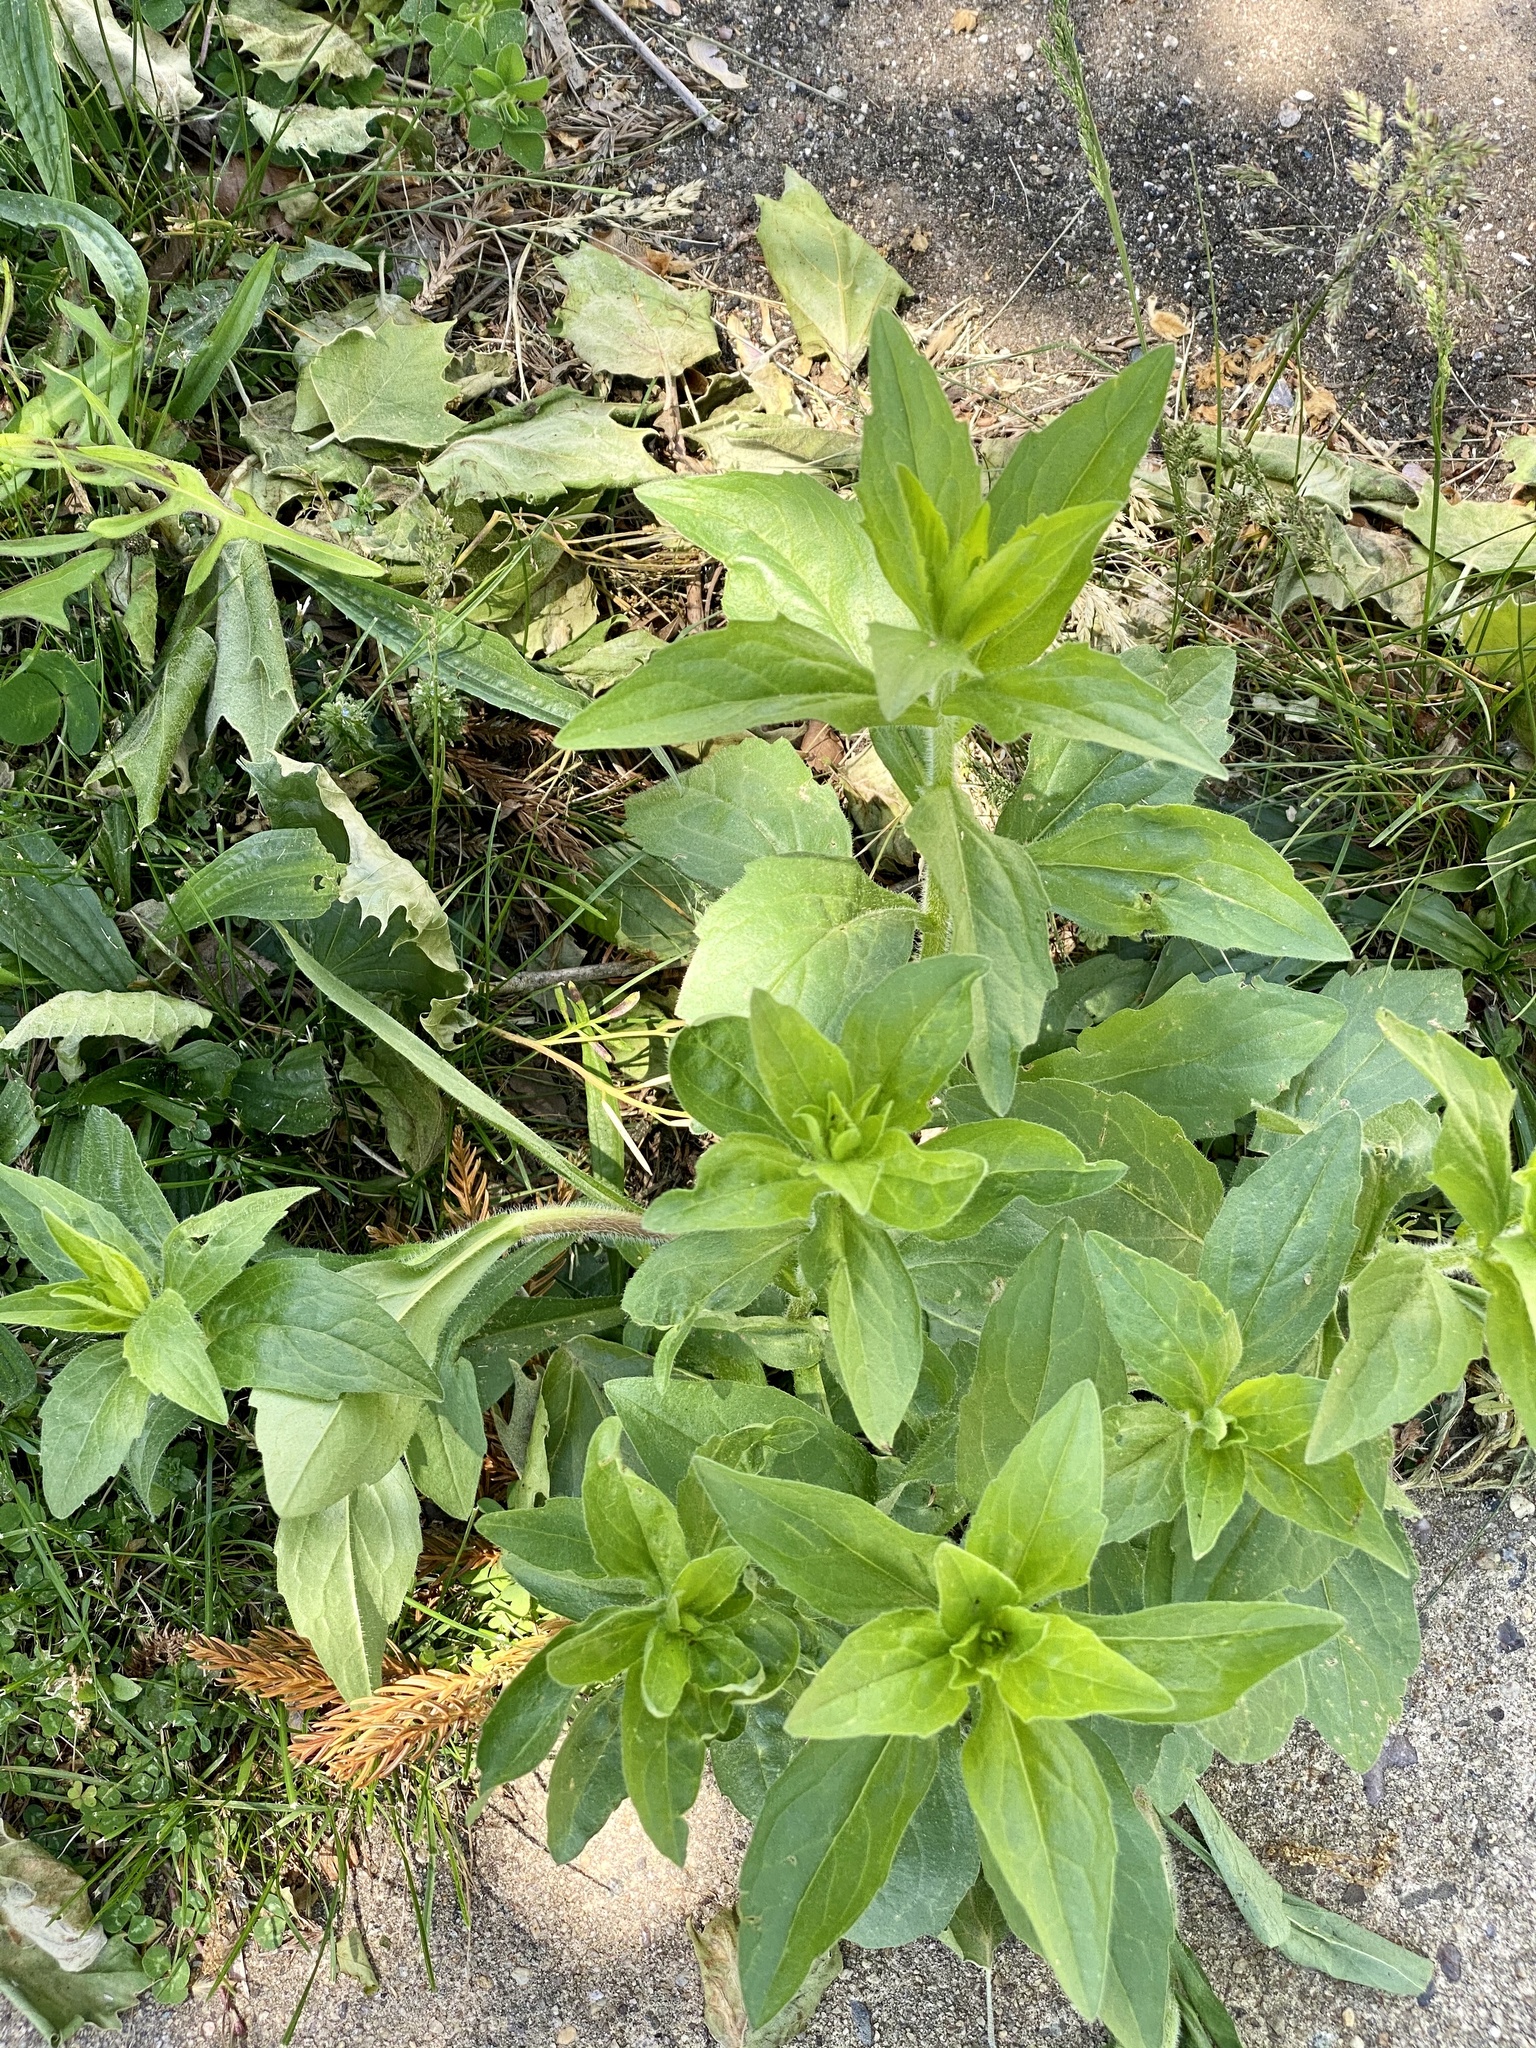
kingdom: Plantae
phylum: Tracheophyta
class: Magnoliopsida
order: Asterales
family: Asteraceae
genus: Erigeron
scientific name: Erigeron annuus
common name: Tall fleabane
